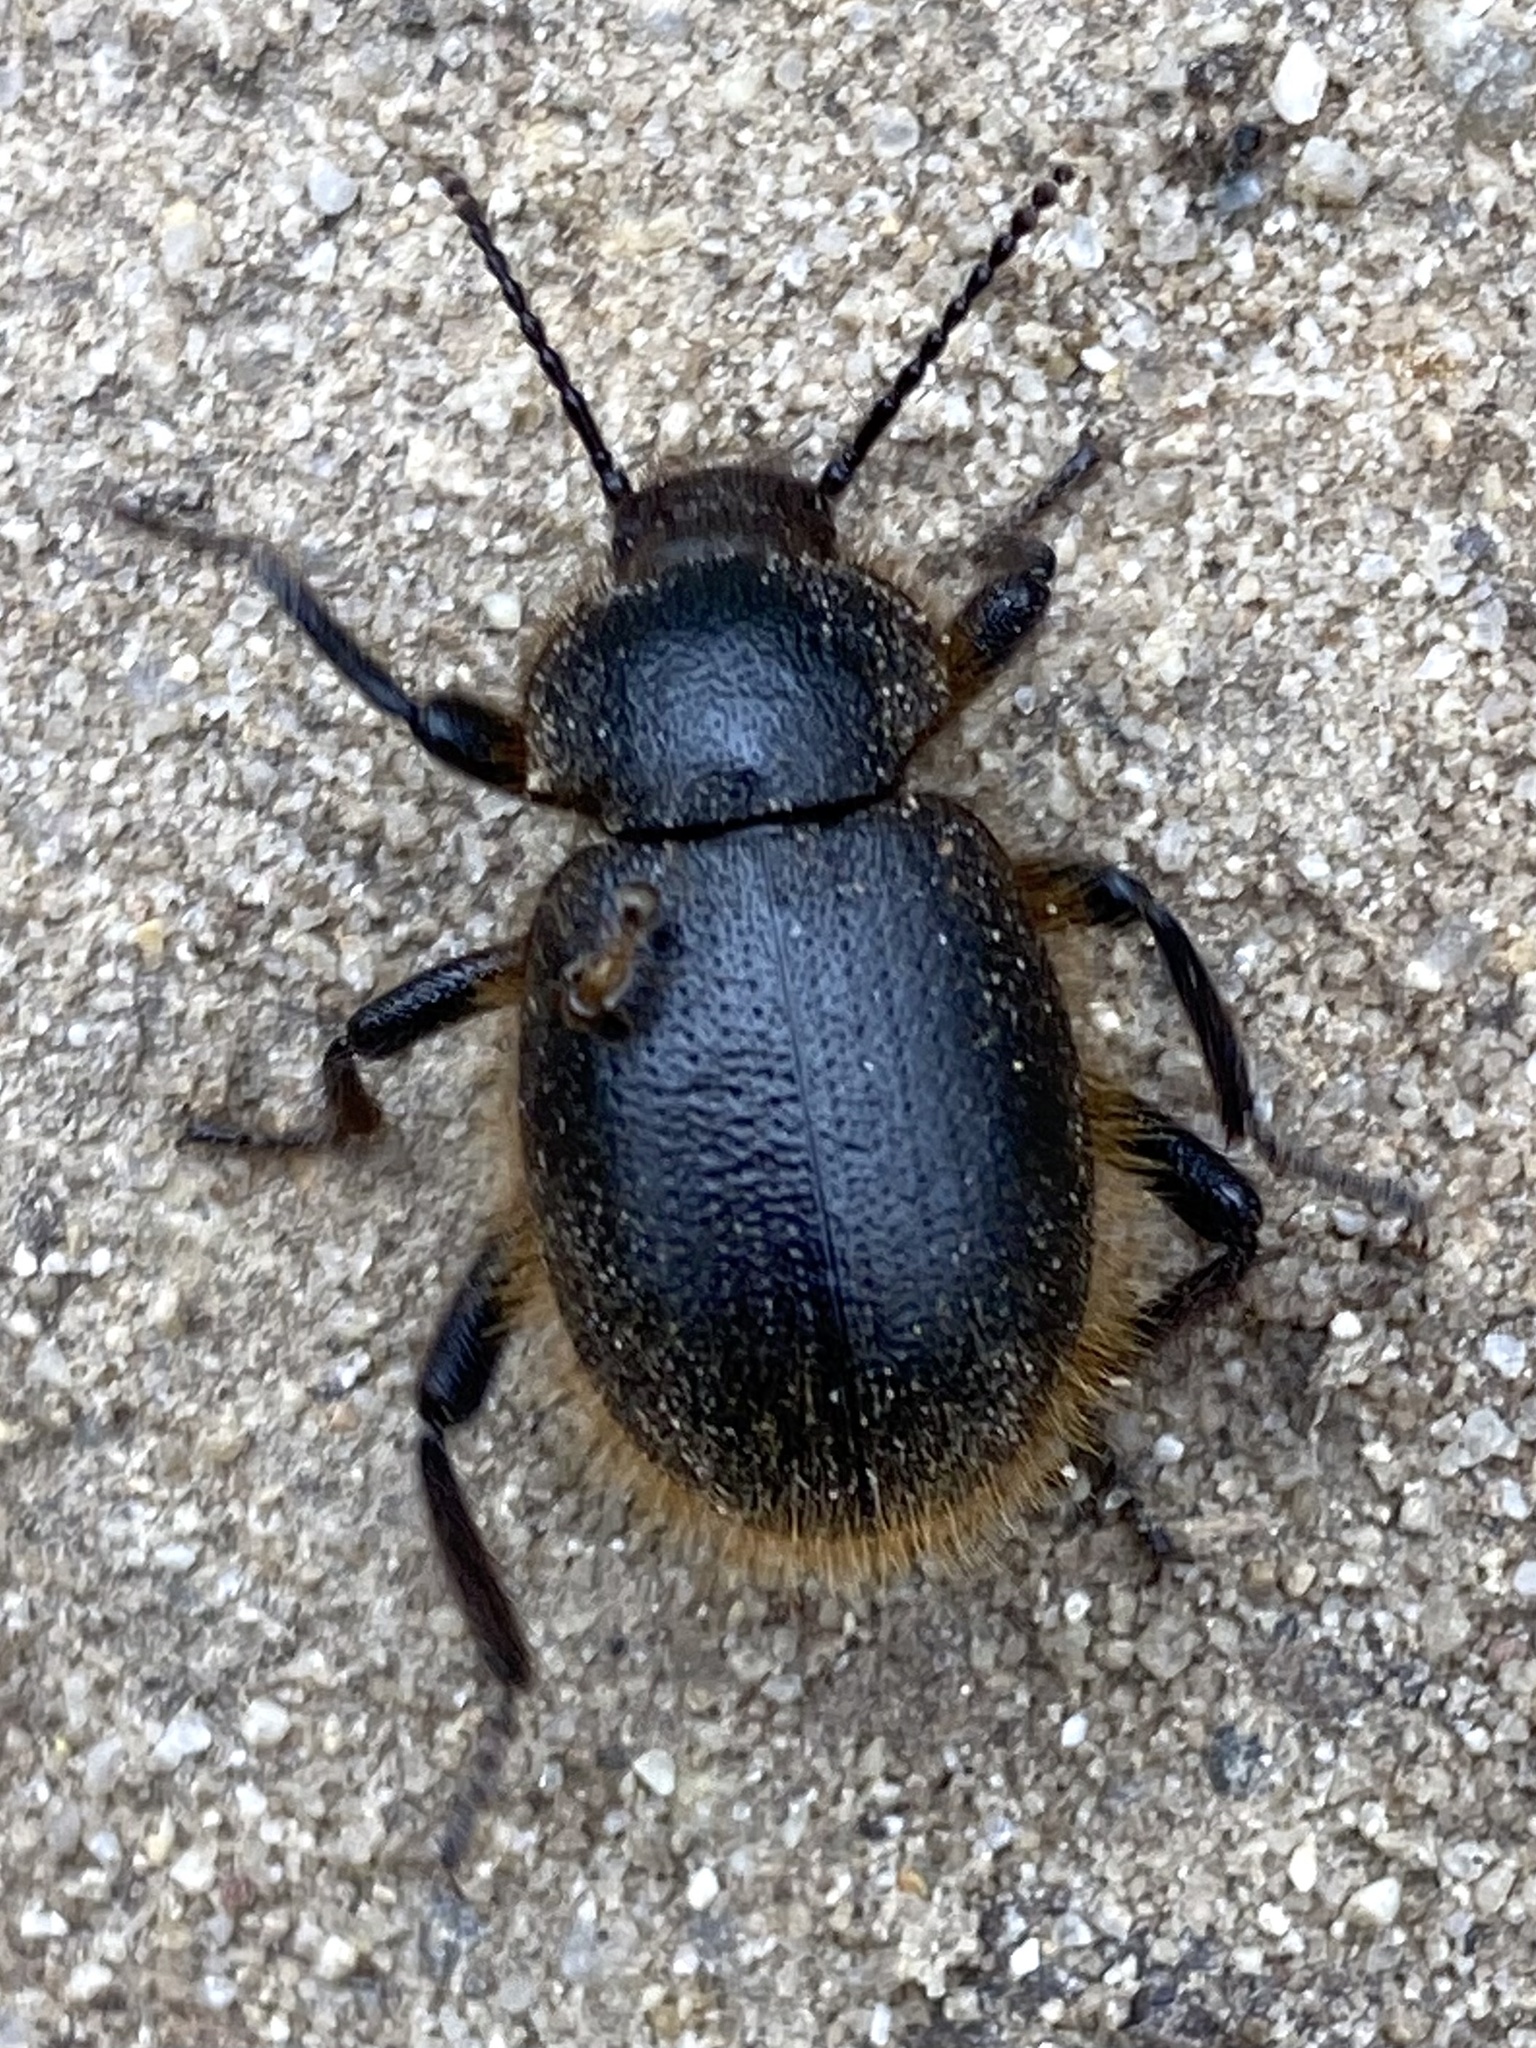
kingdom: Animalia
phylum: Arthropoda
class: Insecta
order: Coleoptera
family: Tenebrionidae
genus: Eleodes
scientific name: Eleodes osculans
